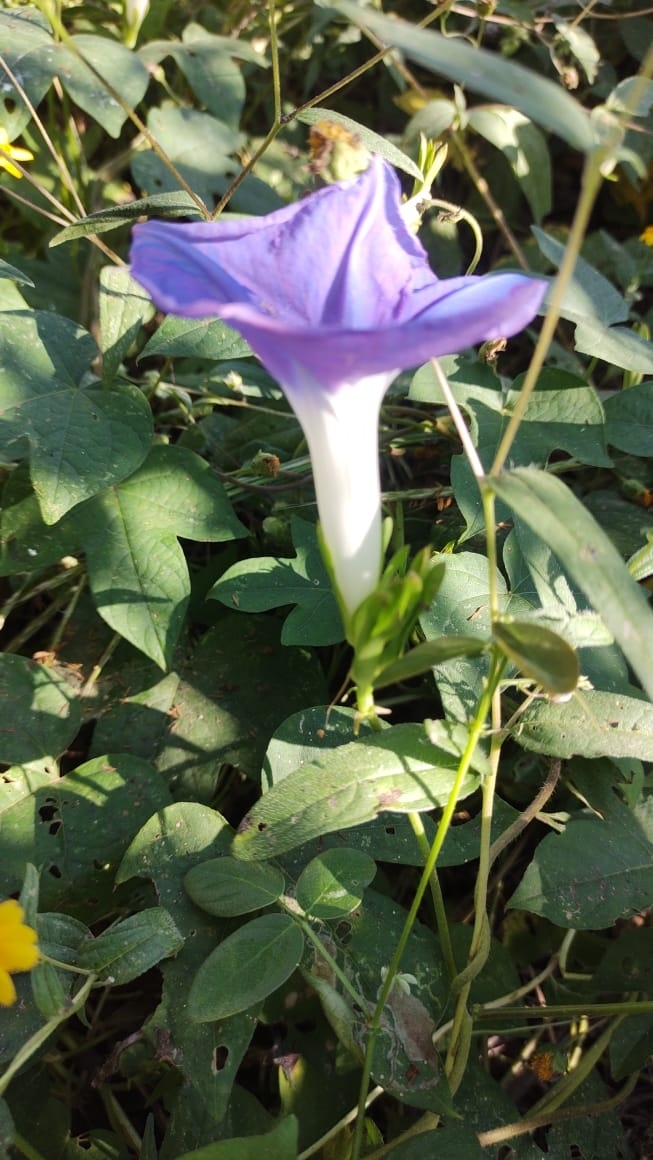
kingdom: Plantae
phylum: Tracheophyta
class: Magnoliopsida
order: Solanales
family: Convolvulaceae
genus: Ipomoea
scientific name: Ipomoea meyeri
